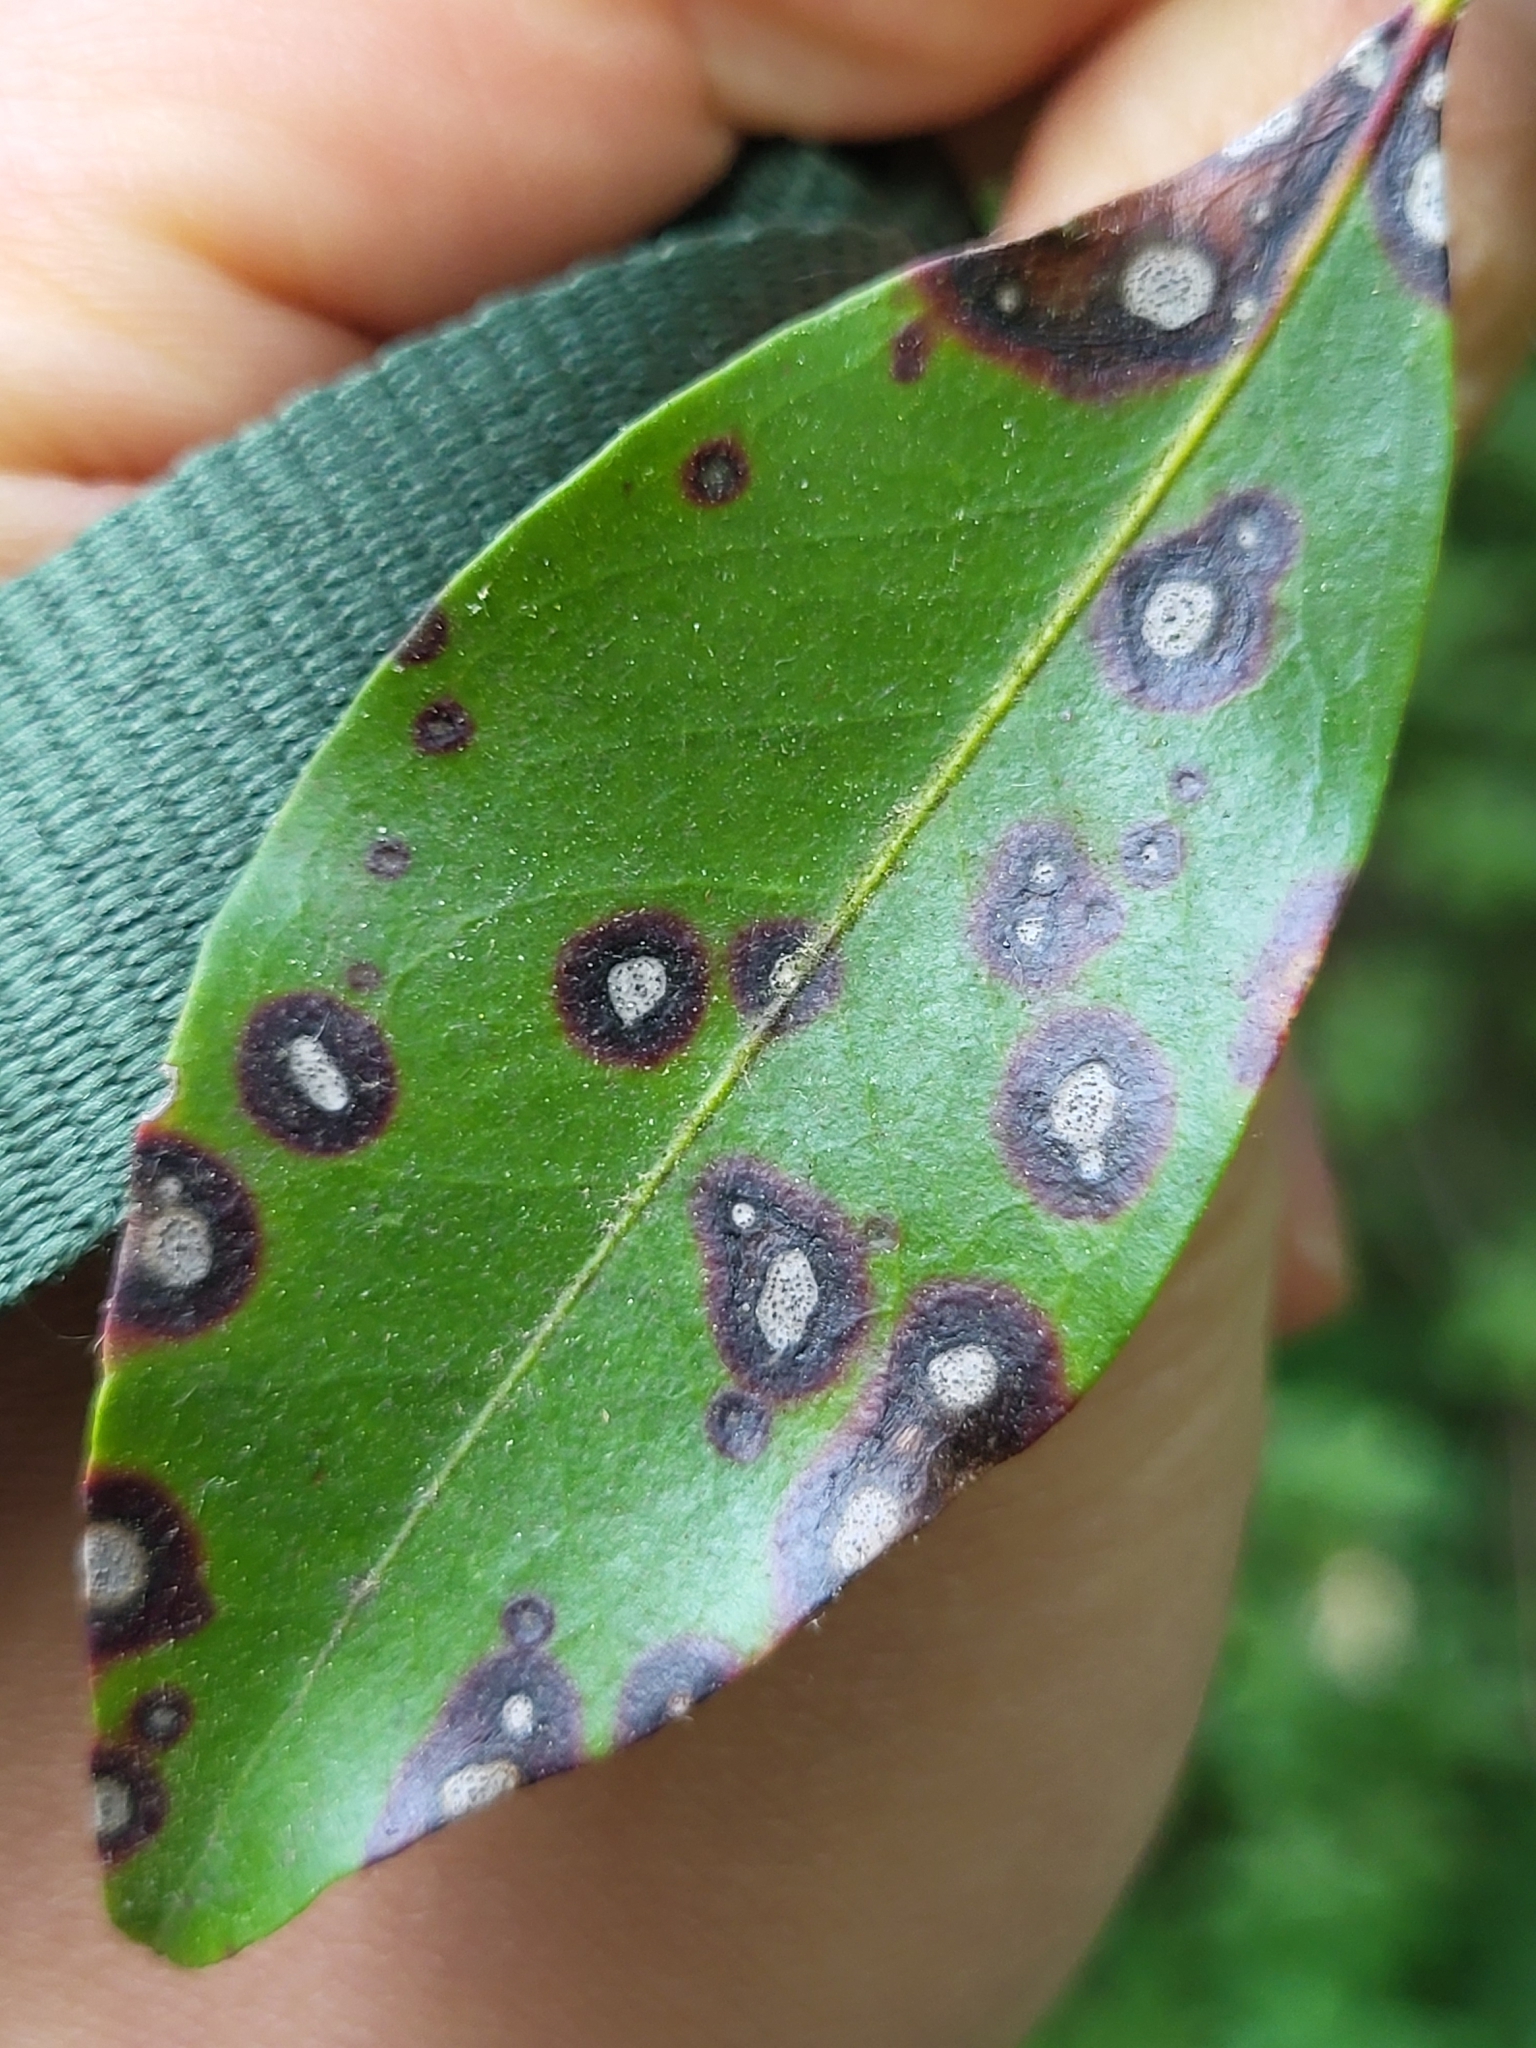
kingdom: Fungi
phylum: Ascomycota
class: Dothideomycetes
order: Mycosphaerellales
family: Mycosphaerellaceae
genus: Mycosphaerella
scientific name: Mycosphaerella colorata
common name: Mountain laurel leaf spot
